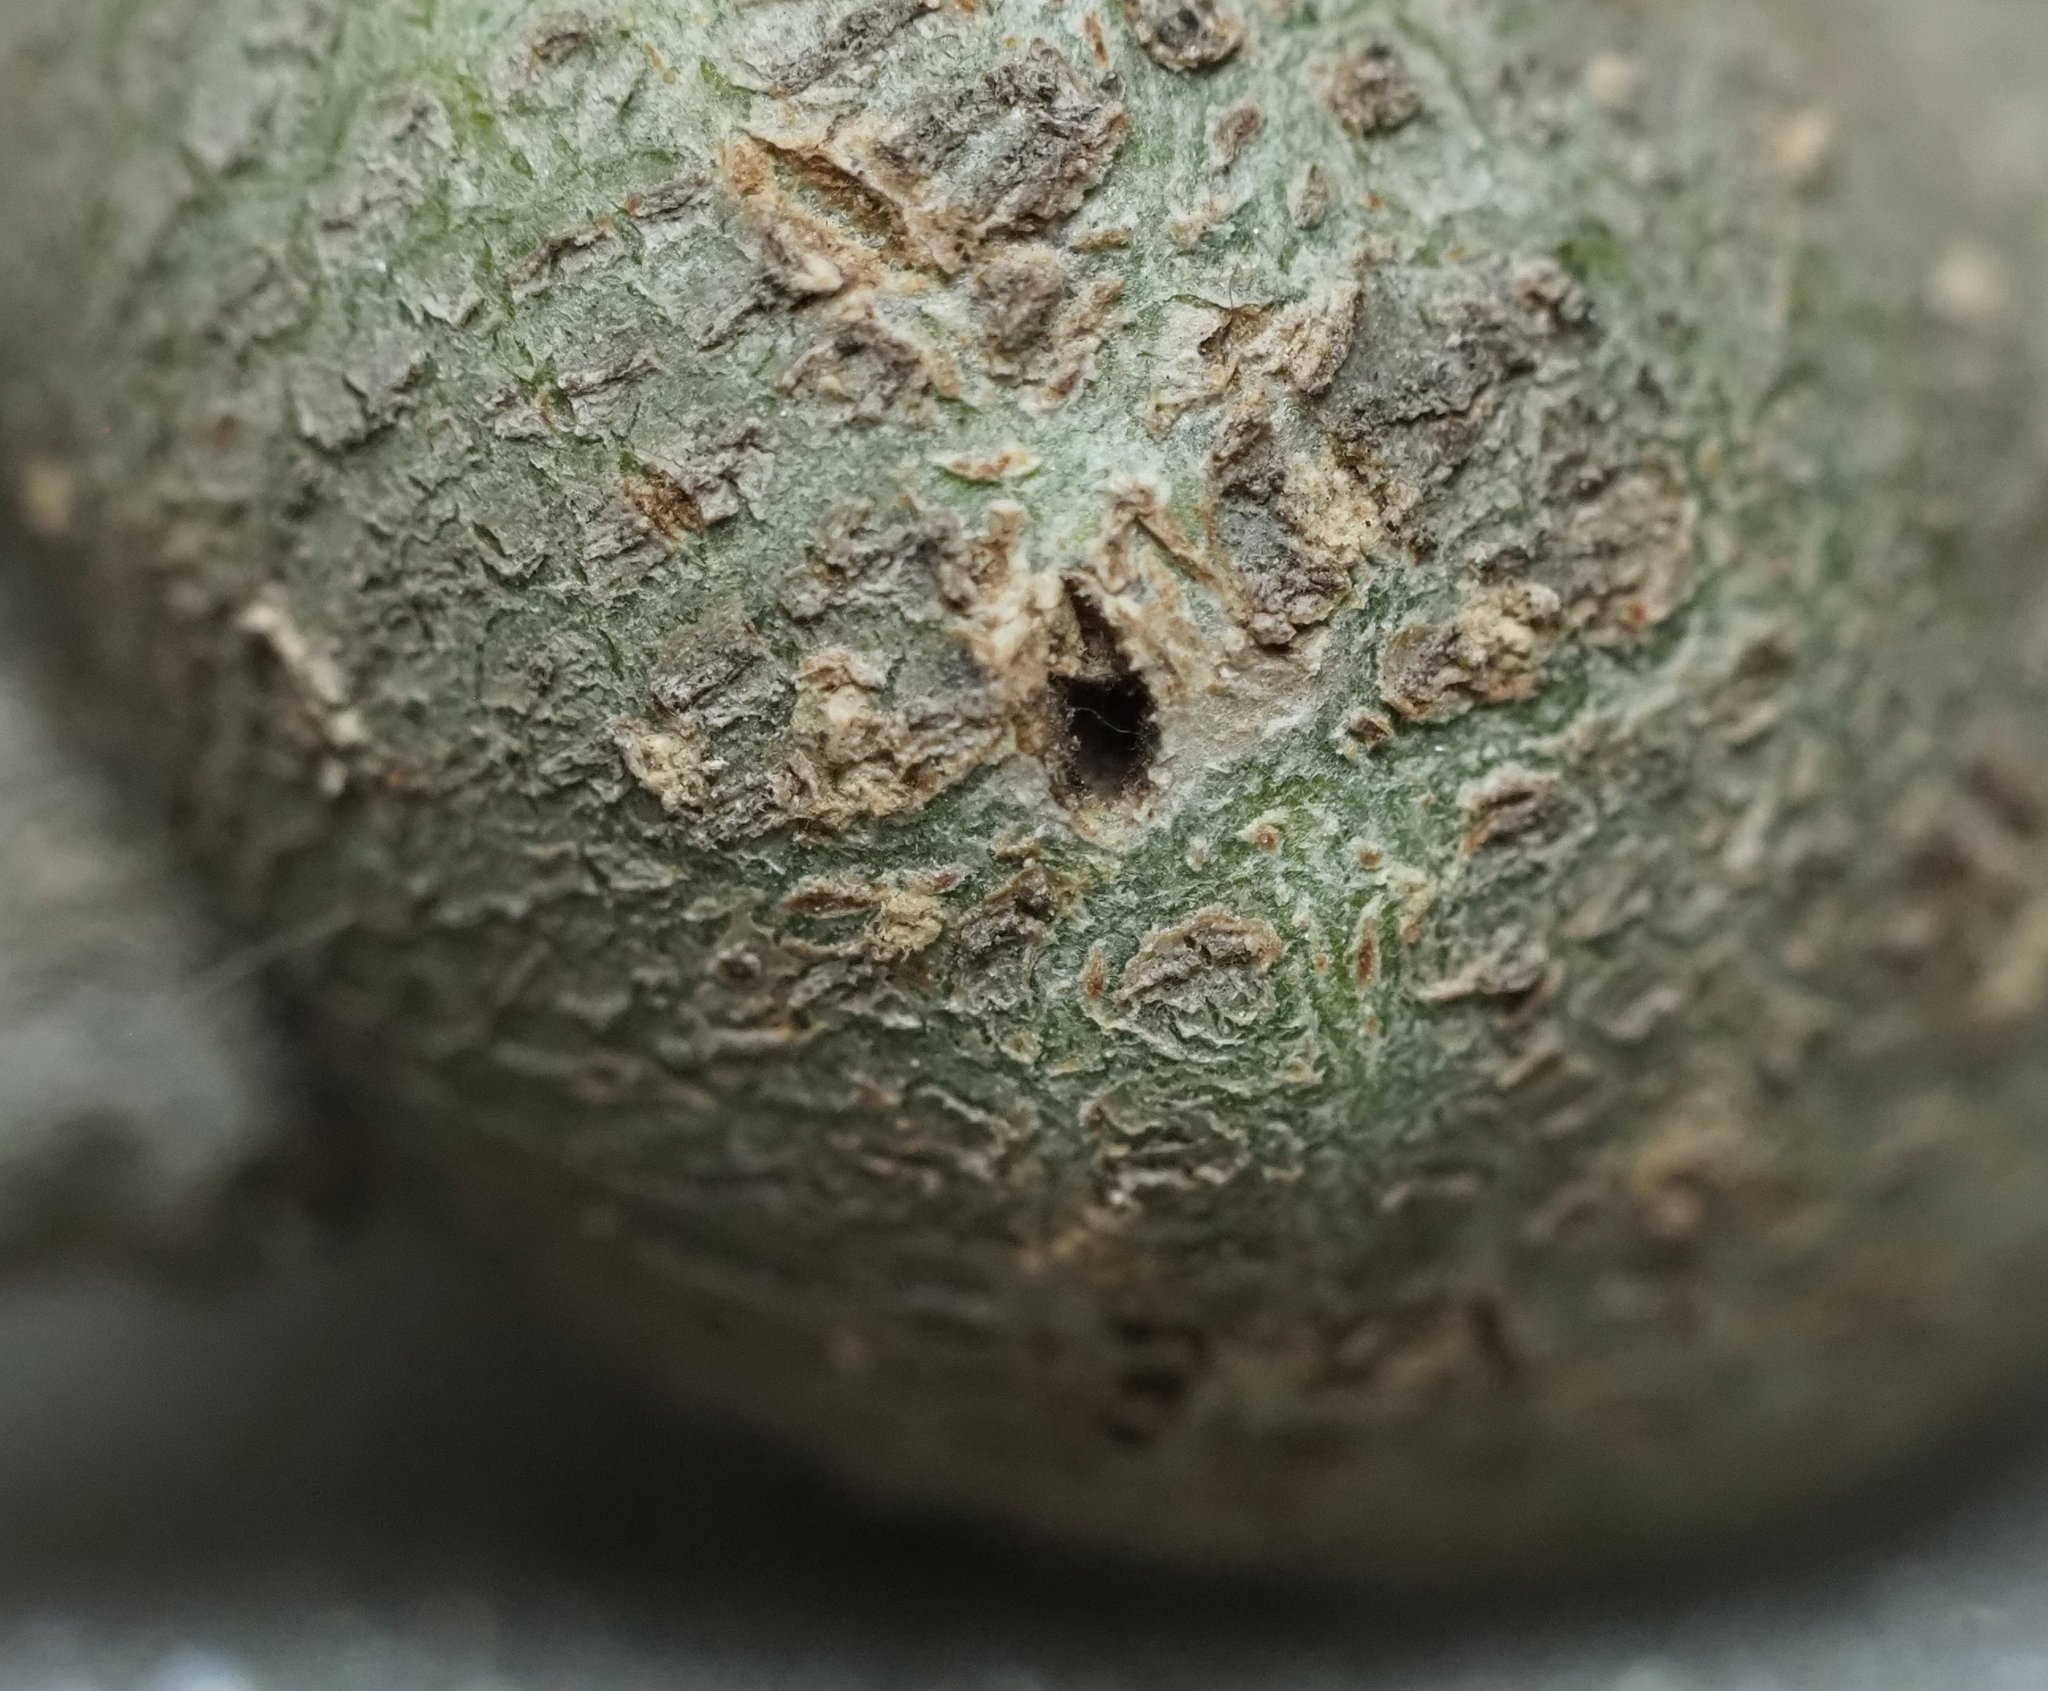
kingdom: Animalia
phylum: Arthropoda
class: Insecta
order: Hymenoptera
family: Cynipidae
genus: Callirhytis
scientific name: Callirhytis
